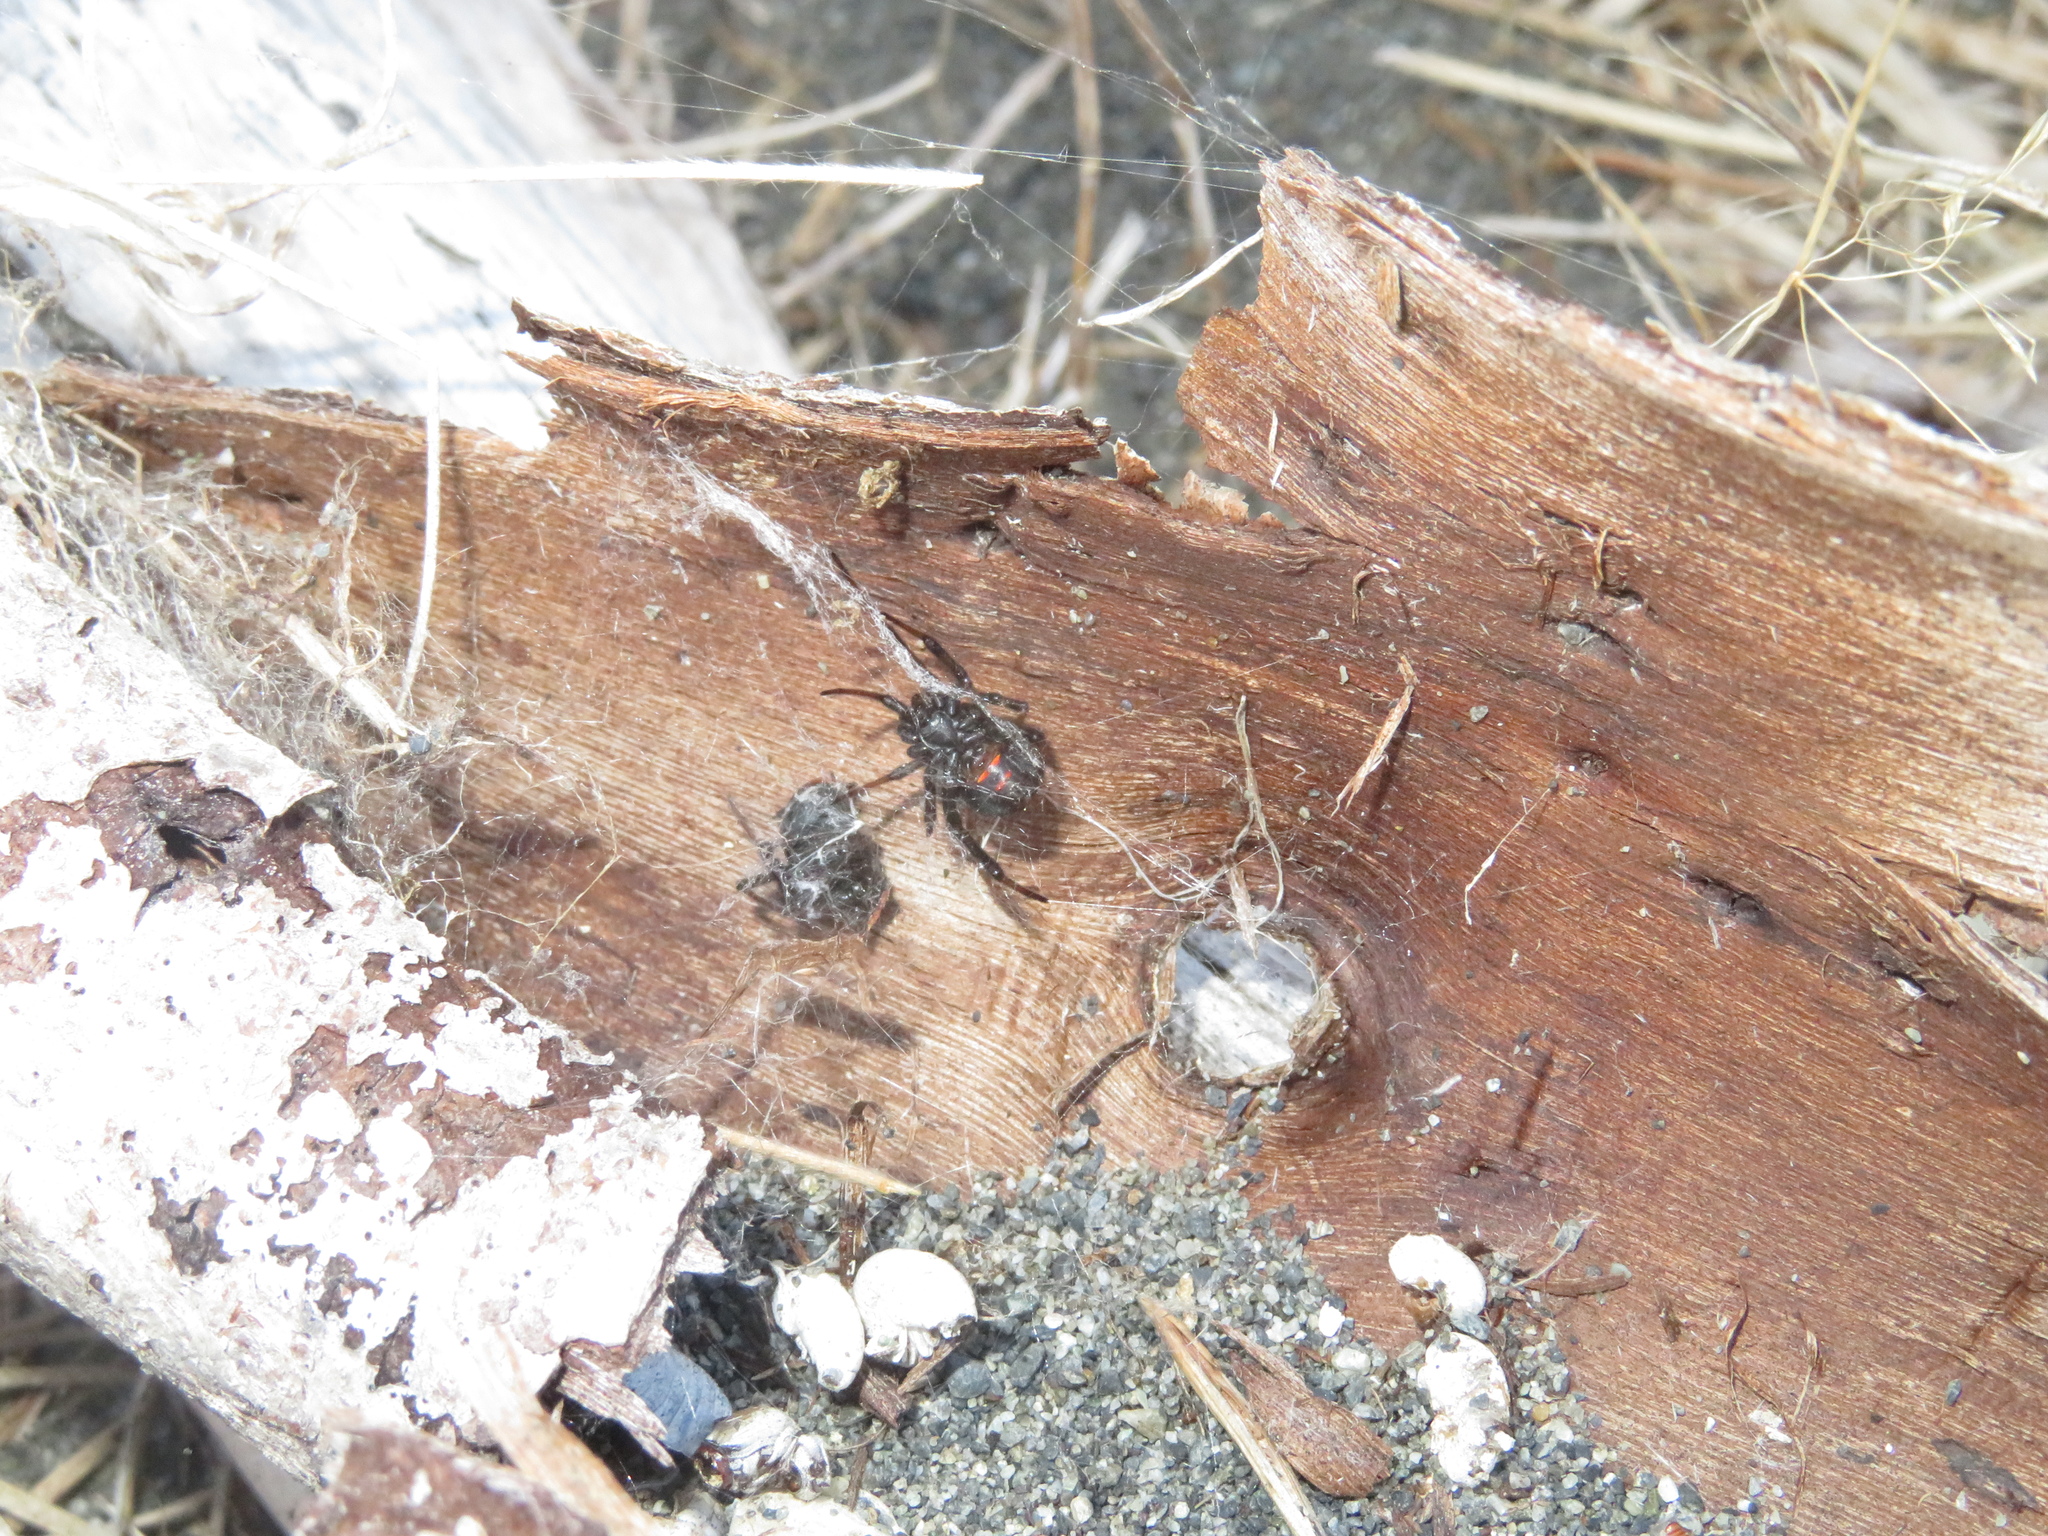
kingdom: Animalia
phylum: Arthropoda
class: Arachnida
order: Araneae
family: Theridiidae
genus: Latrodectus
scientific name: Latrodectus katipo
